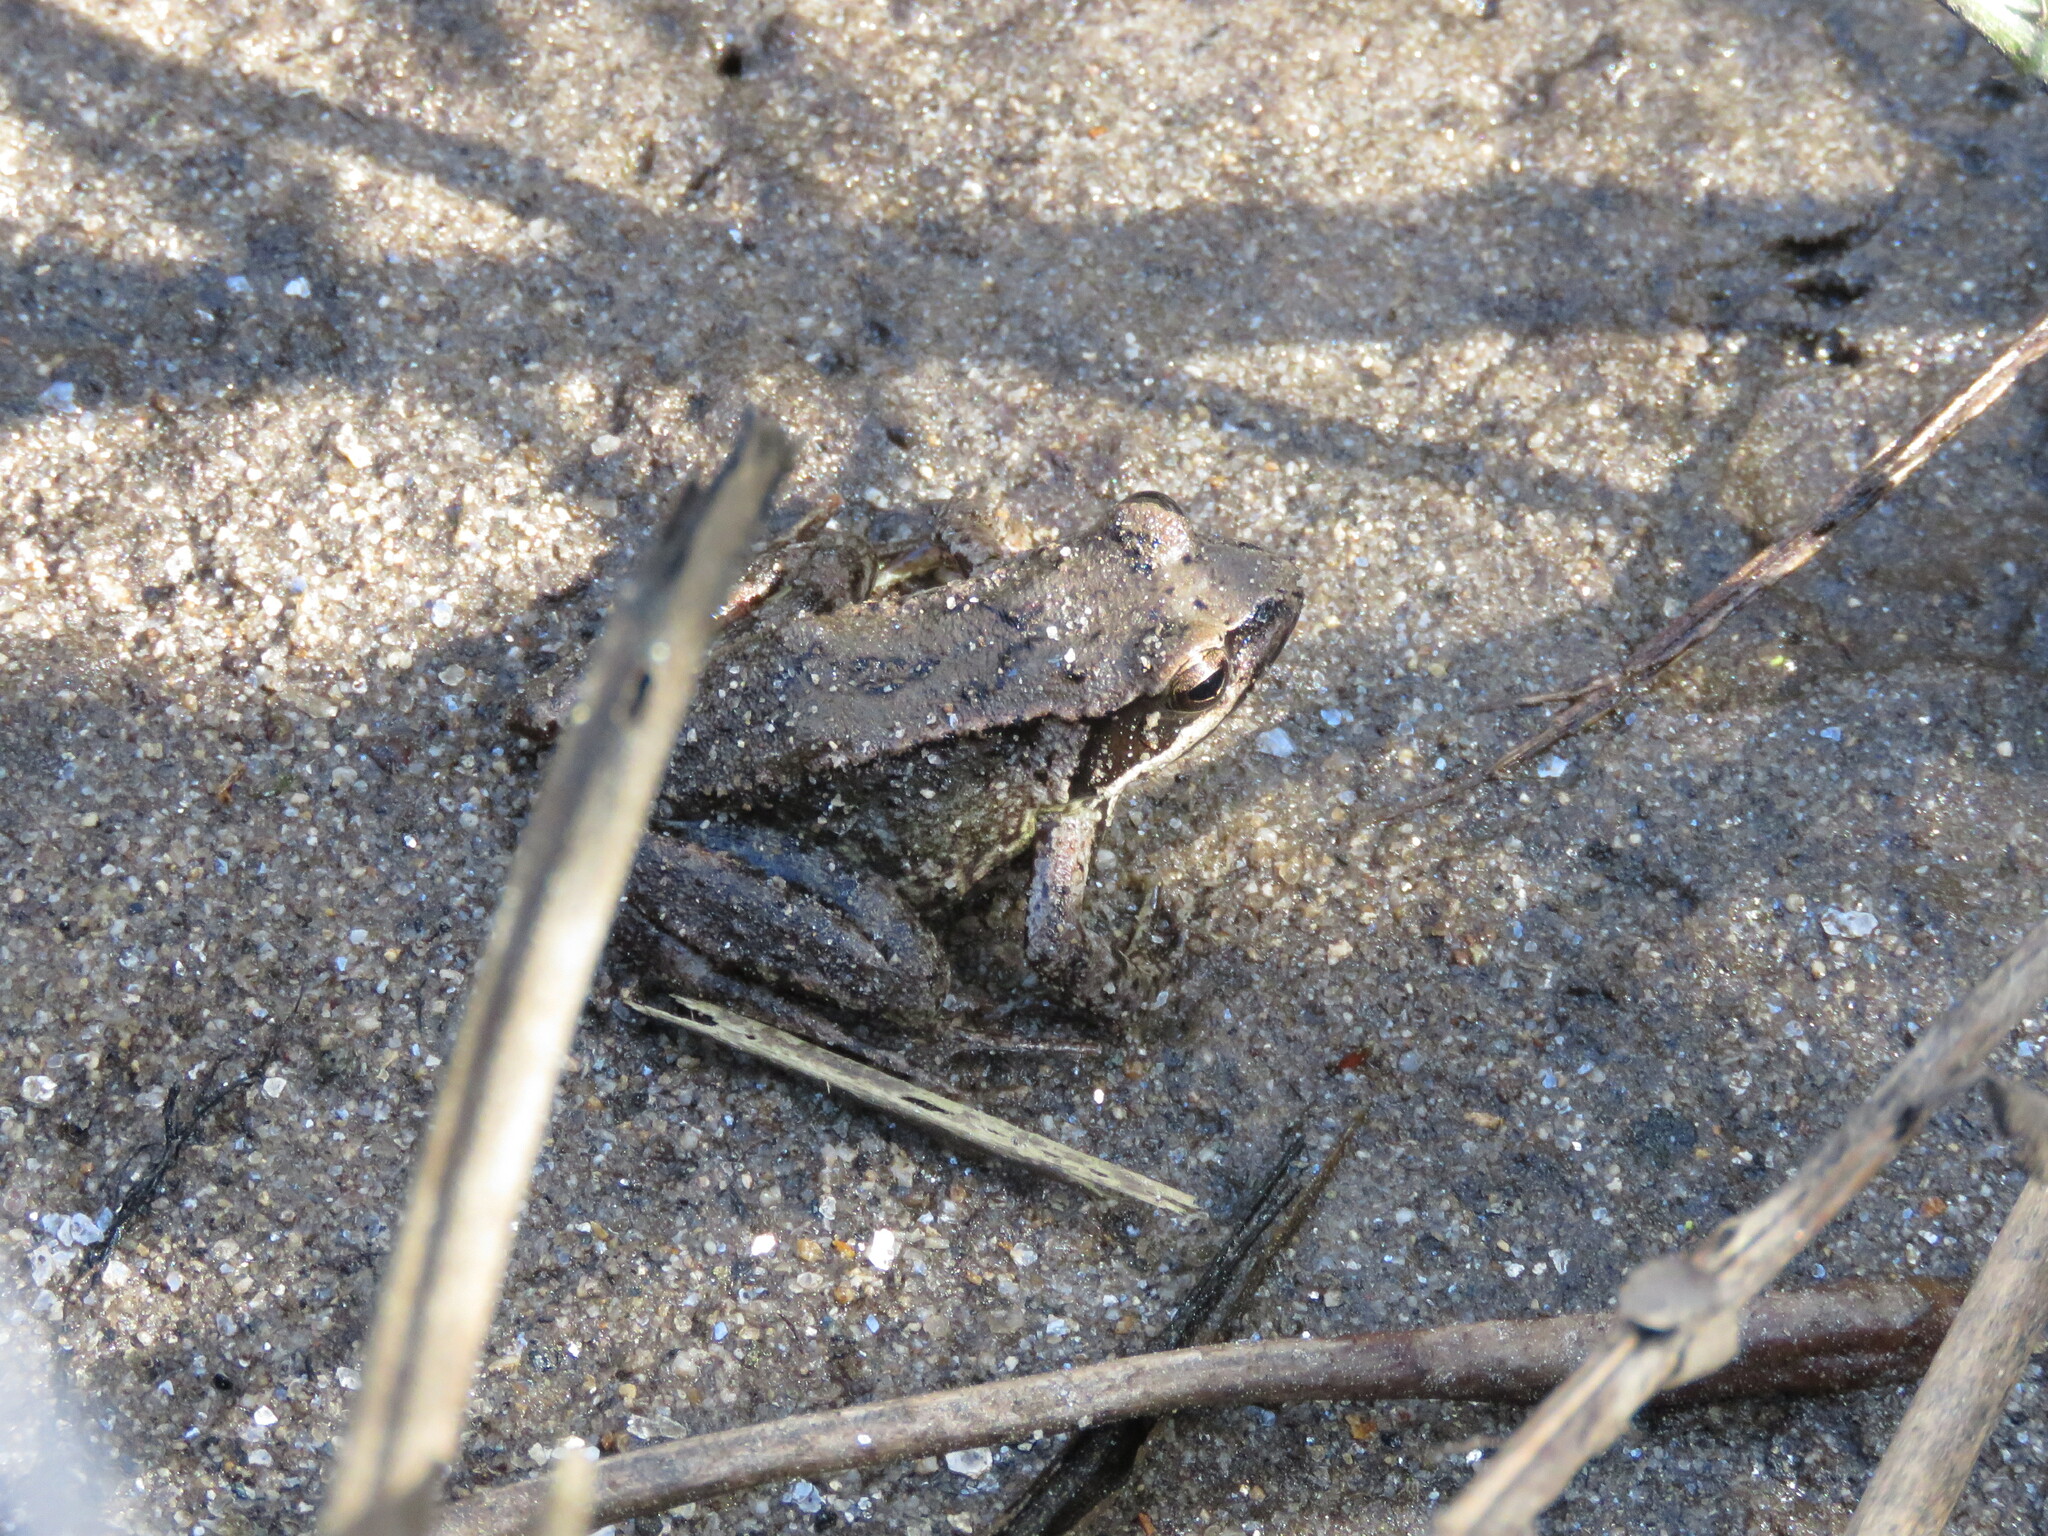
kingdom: Animalia
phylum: Chordata
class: Amphibia
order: Anura
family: Ranidae
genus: Rana
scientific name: Rana iberica
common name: Iberian frog
